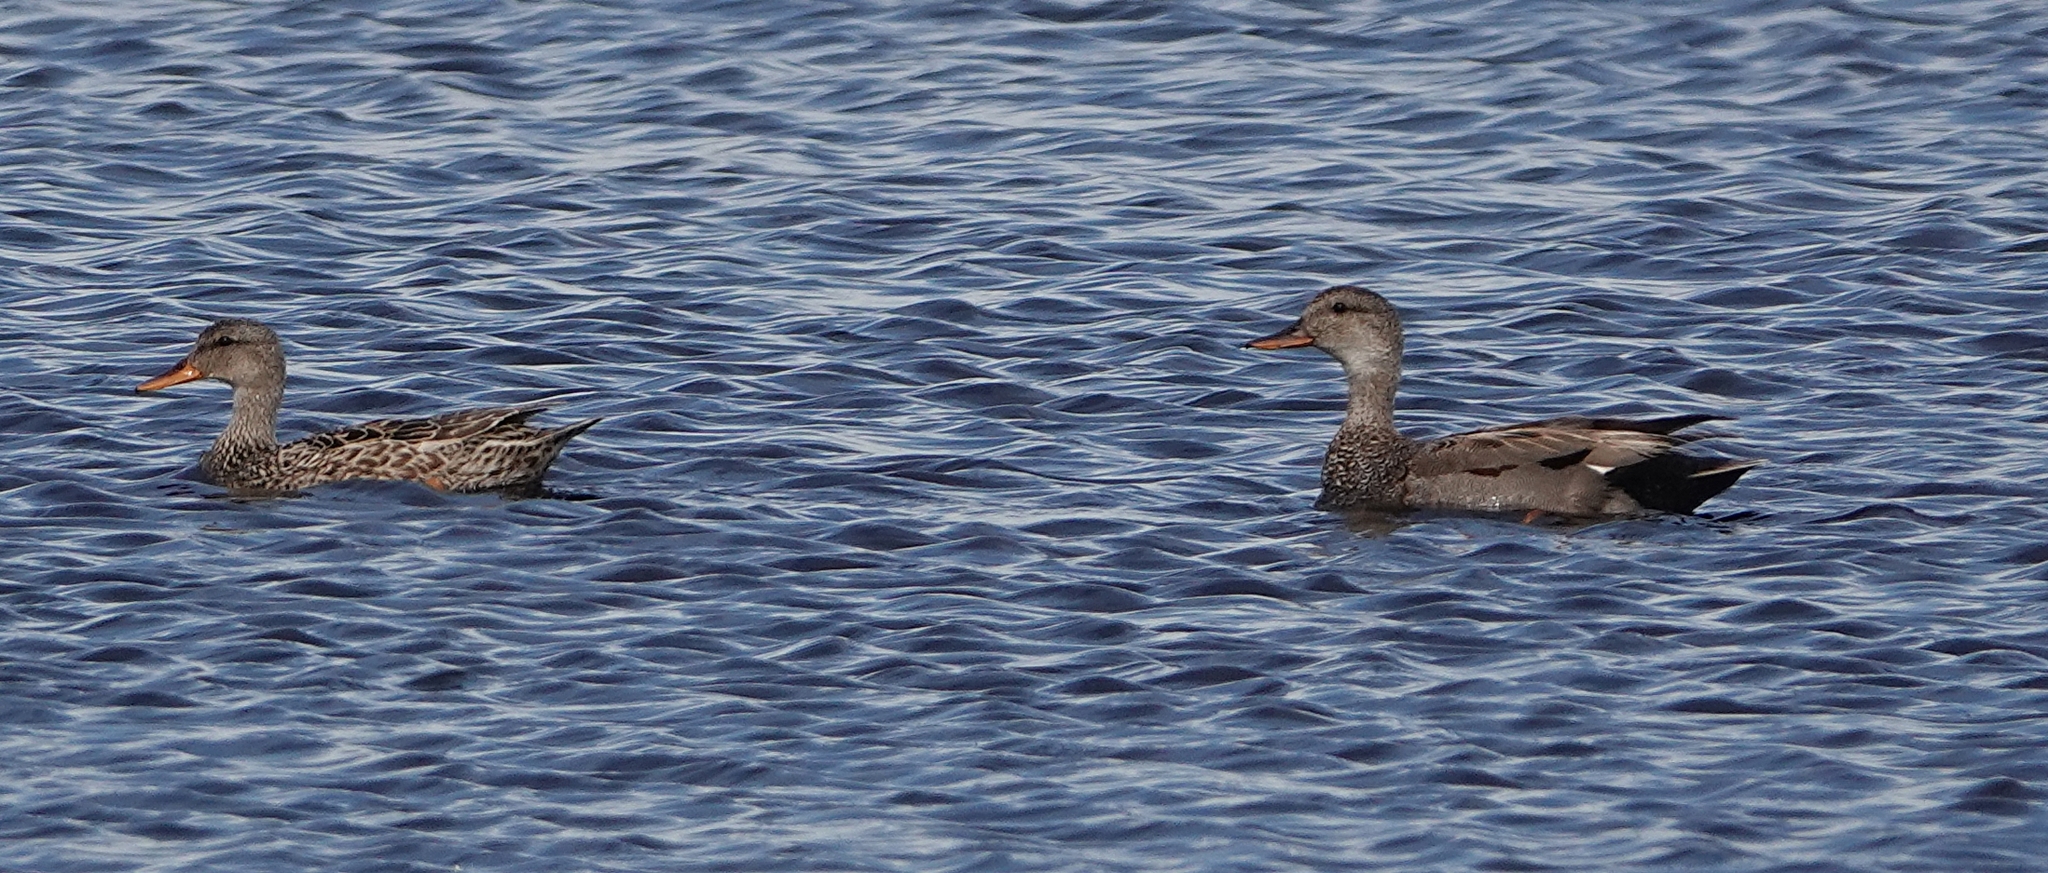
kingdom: Animalia
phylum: Chordata
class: Aves
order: Anseriformes
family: Anatidae
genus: Mareca
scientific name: Mareca strepera
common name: Gadwall
